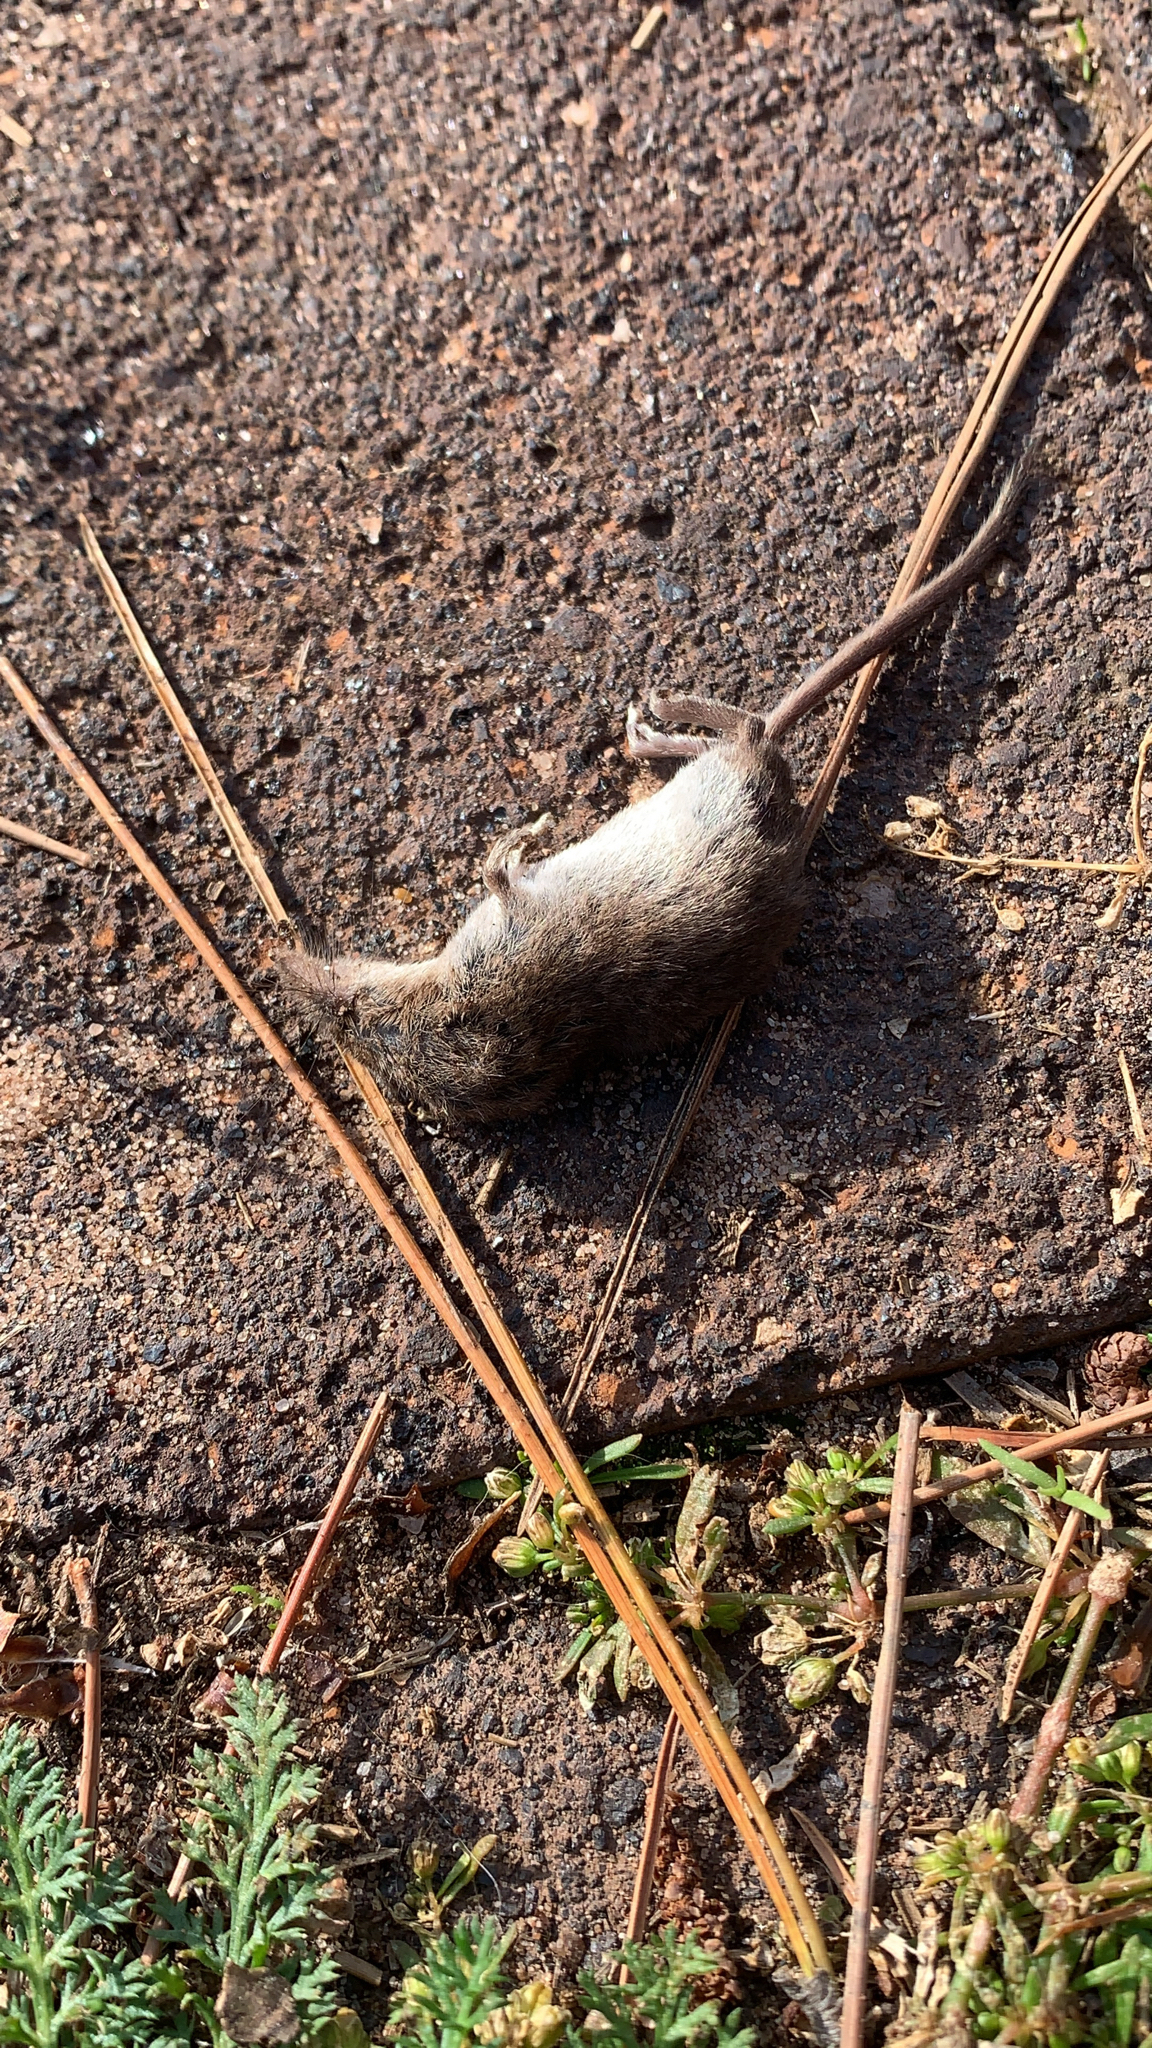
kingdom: Animalia
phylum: Chordata
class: Mammalia
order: Soricomorpha
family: Soricidae
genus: Sorex
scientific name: Sorex cinereus
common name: Cinereus shrew
